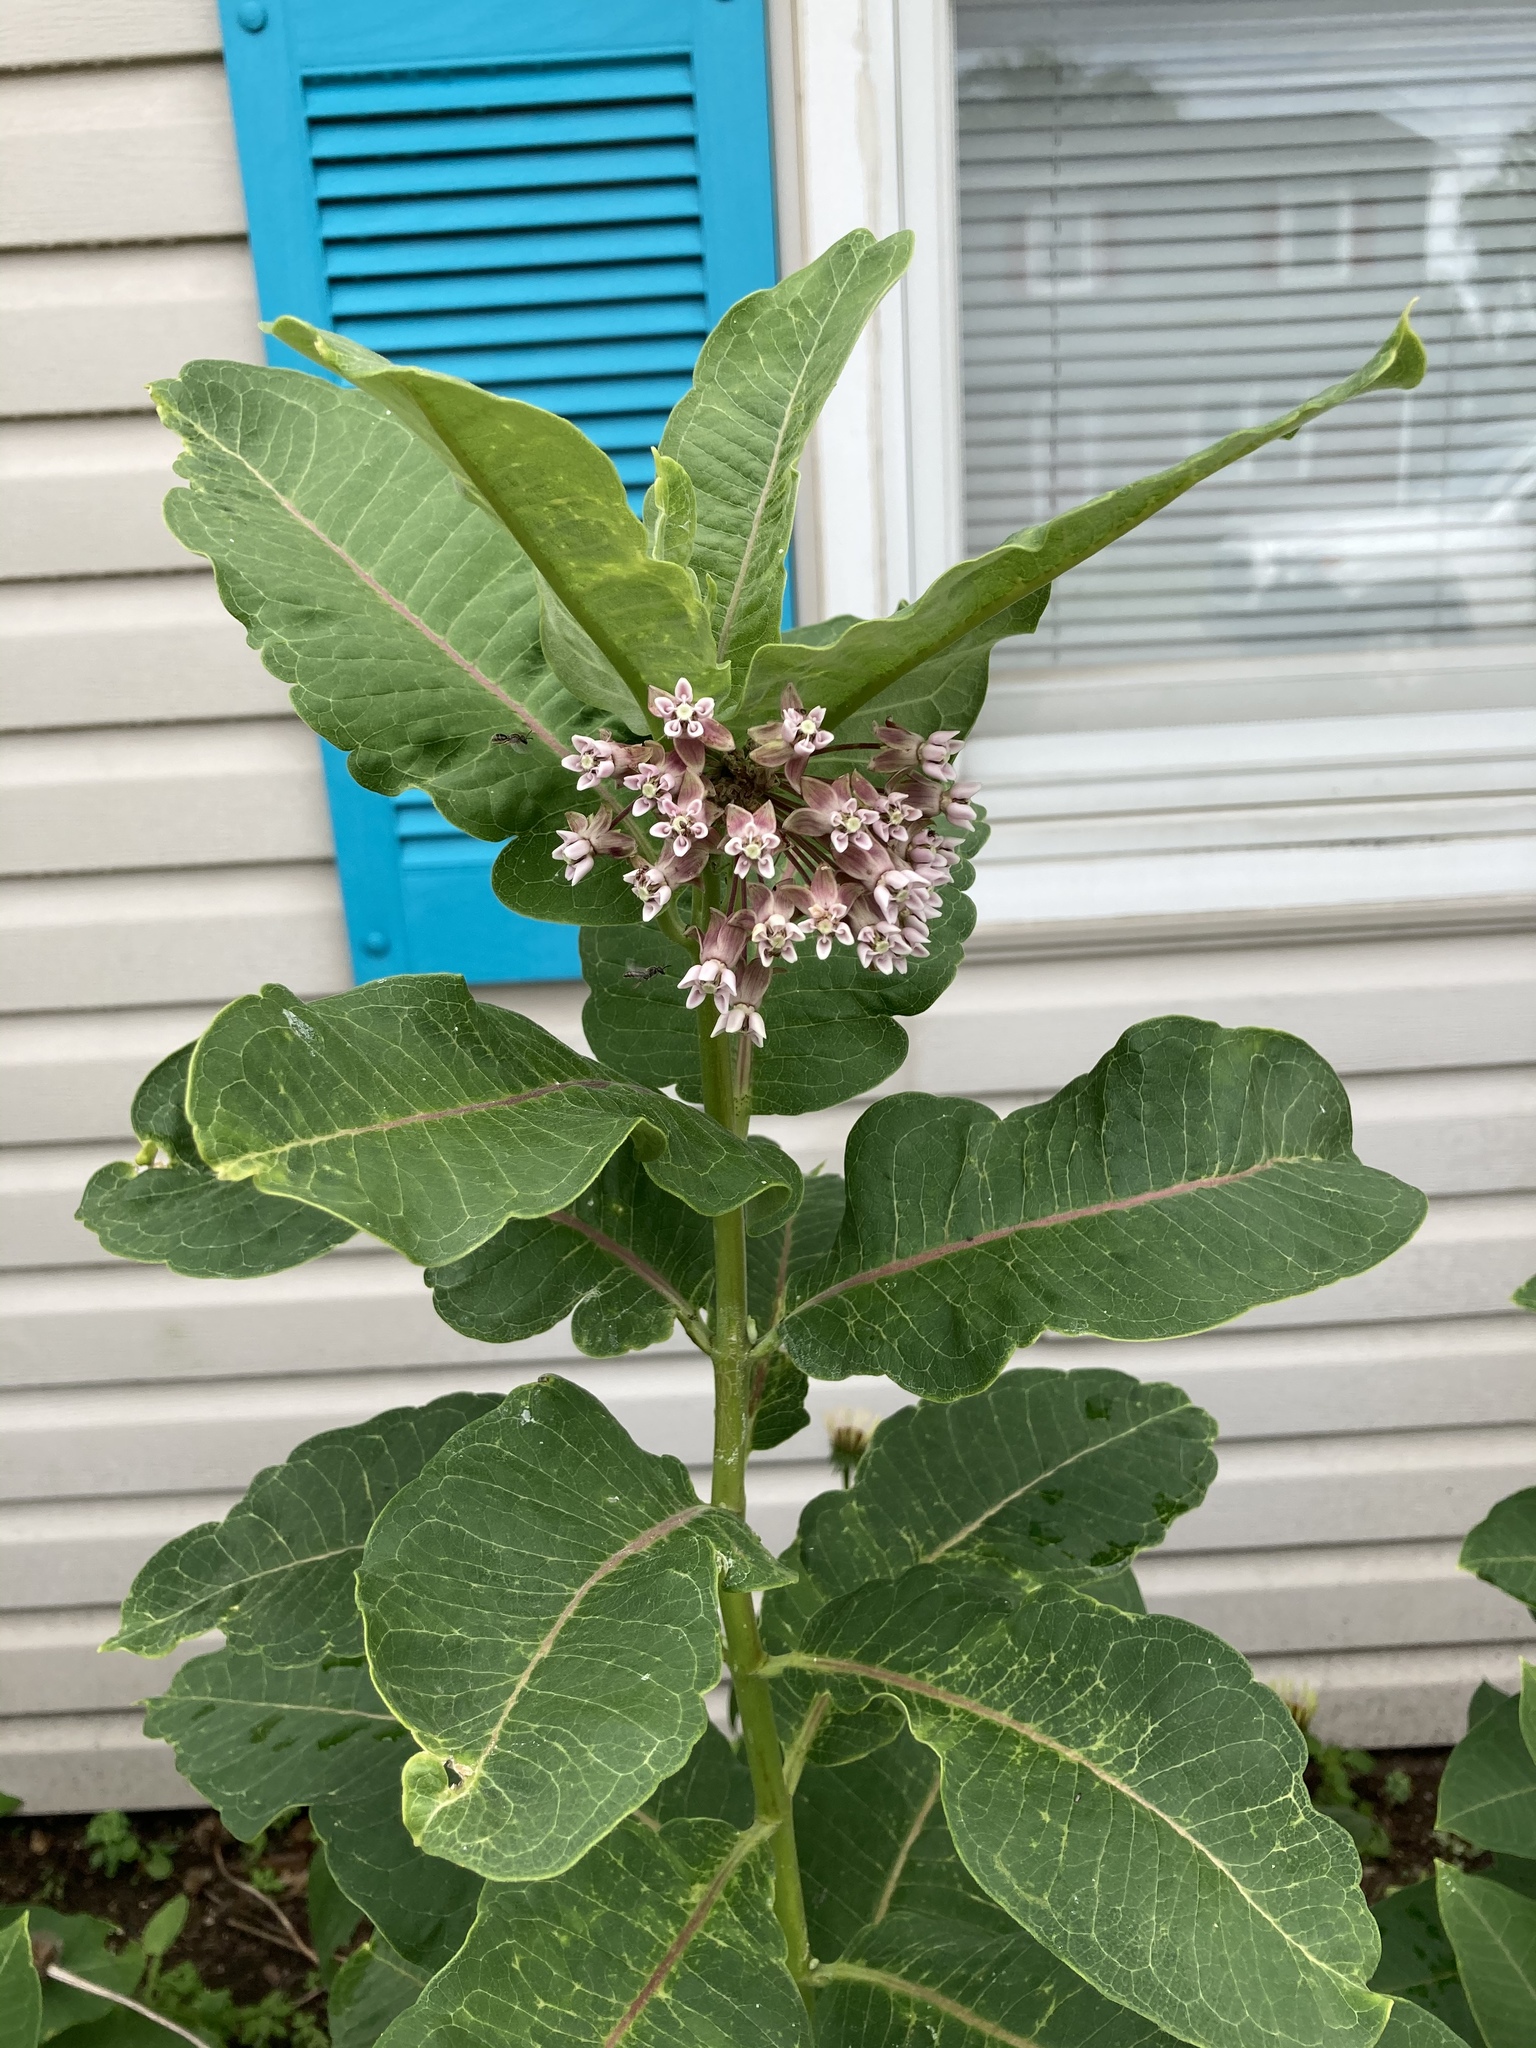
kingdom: Plantae
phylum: Tracheophyta
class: Magnoliopsida
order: Gentianales
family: Apocynaceae
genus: Asclepias
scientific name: Asclepias syriaca
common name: Common milkweed
